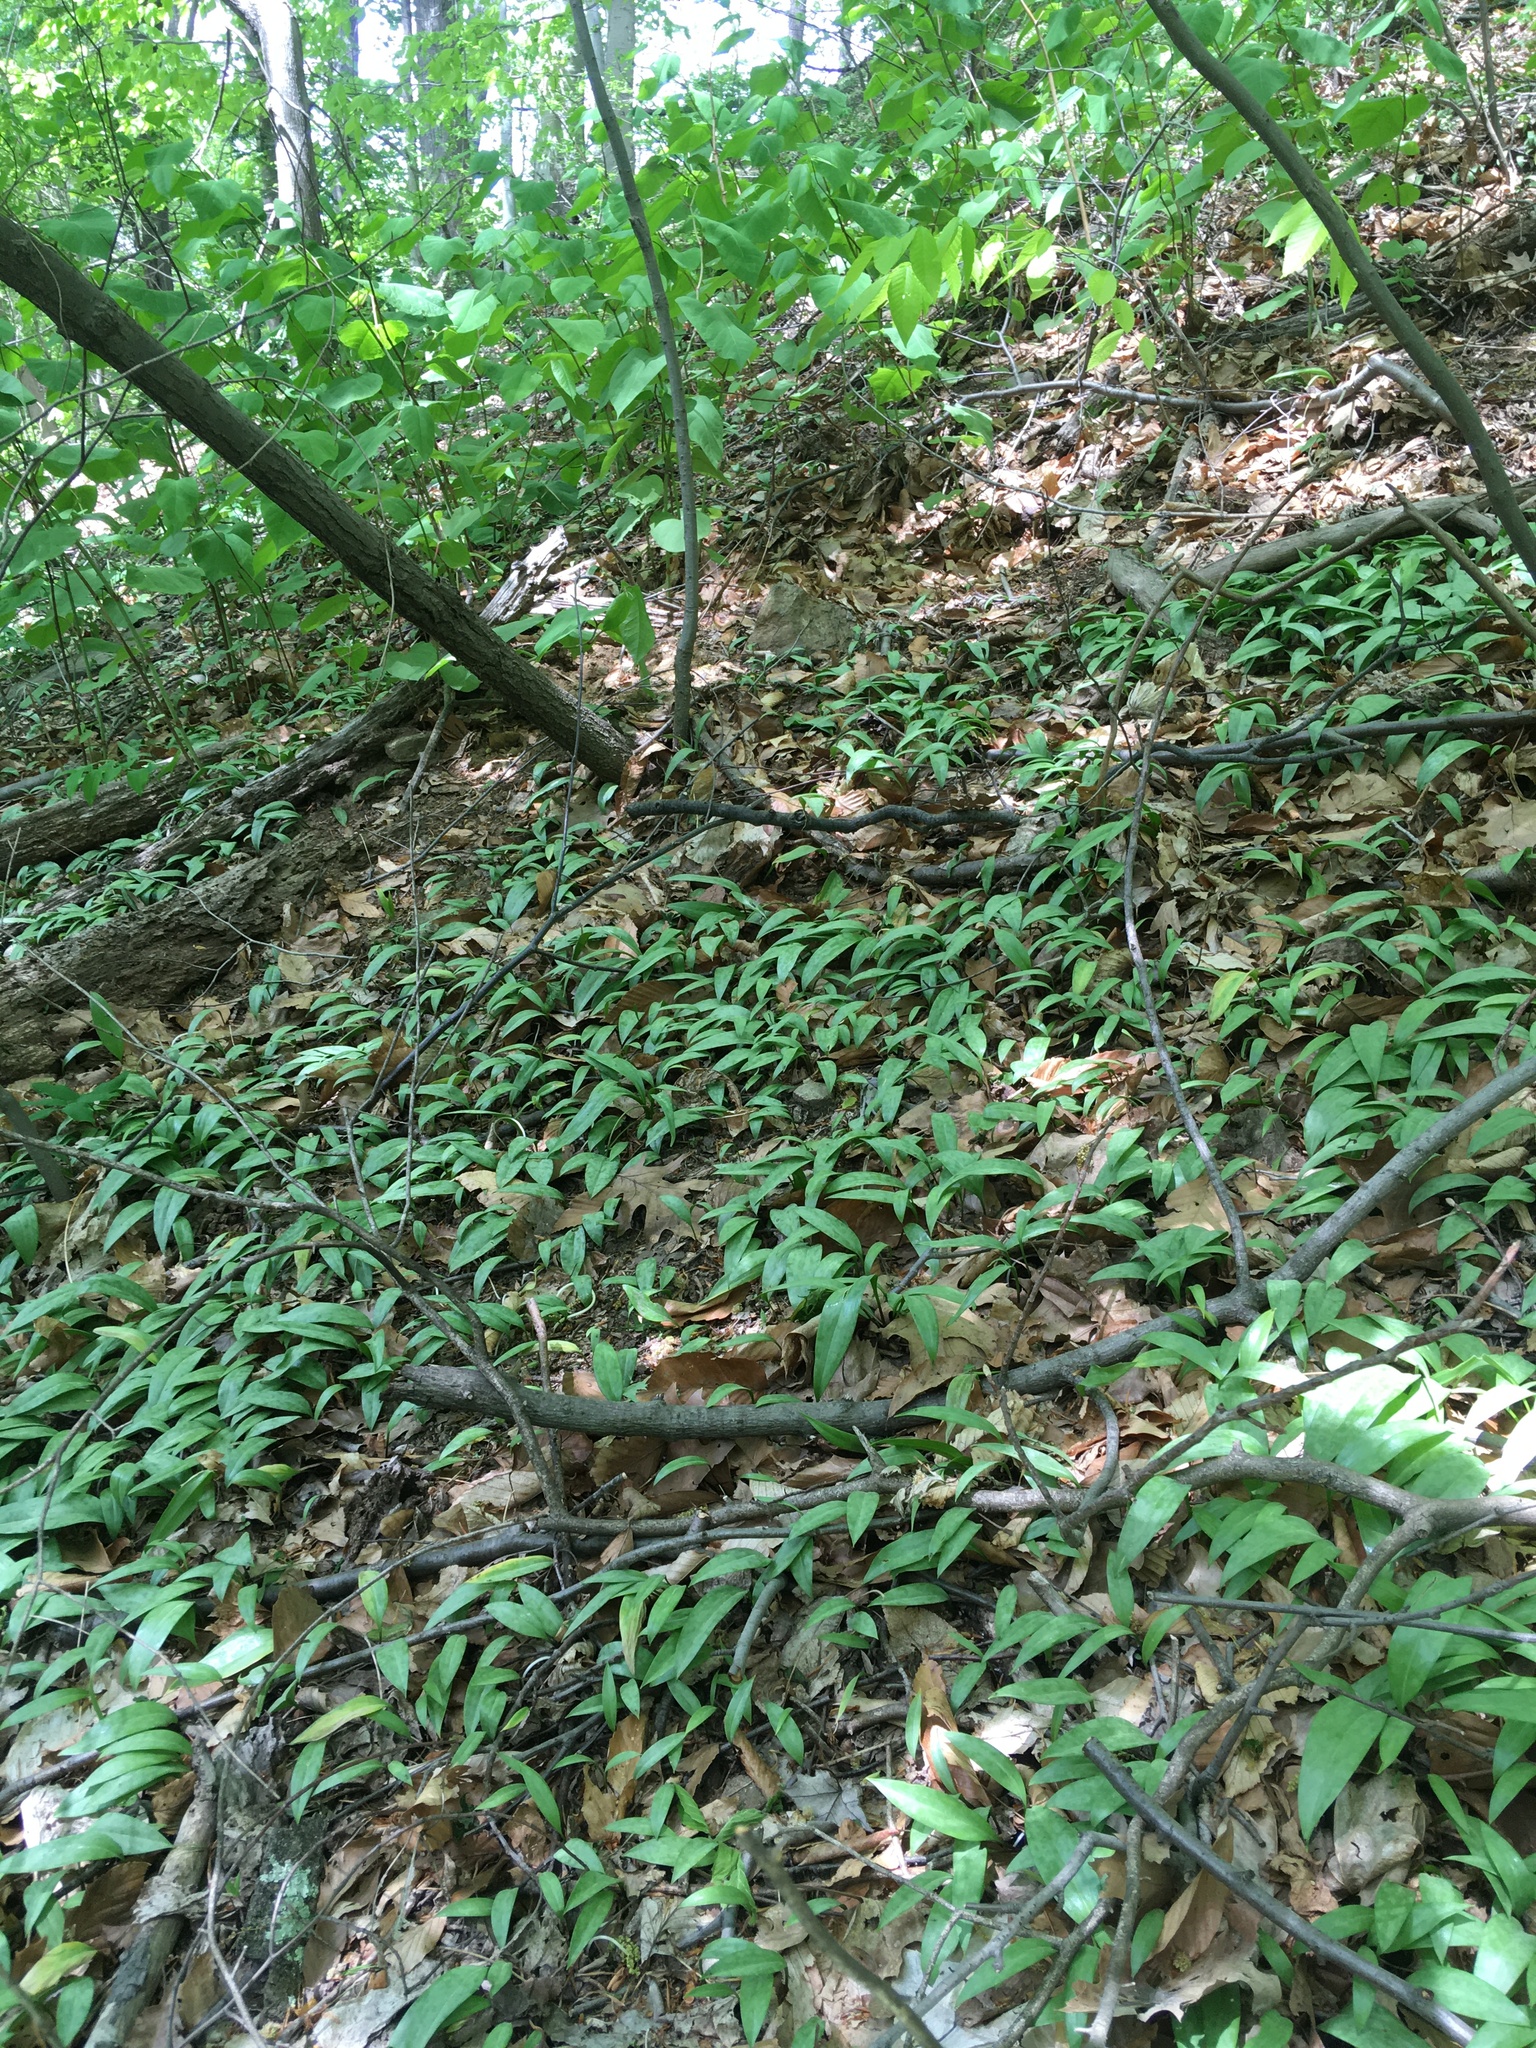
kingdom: Plantae
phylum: Tracheophyta
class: Liliopsida
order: Liliales
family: Liliaceae
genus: Erythronium
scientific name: Erythronium americanum
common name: Yellow adder's-tongue
